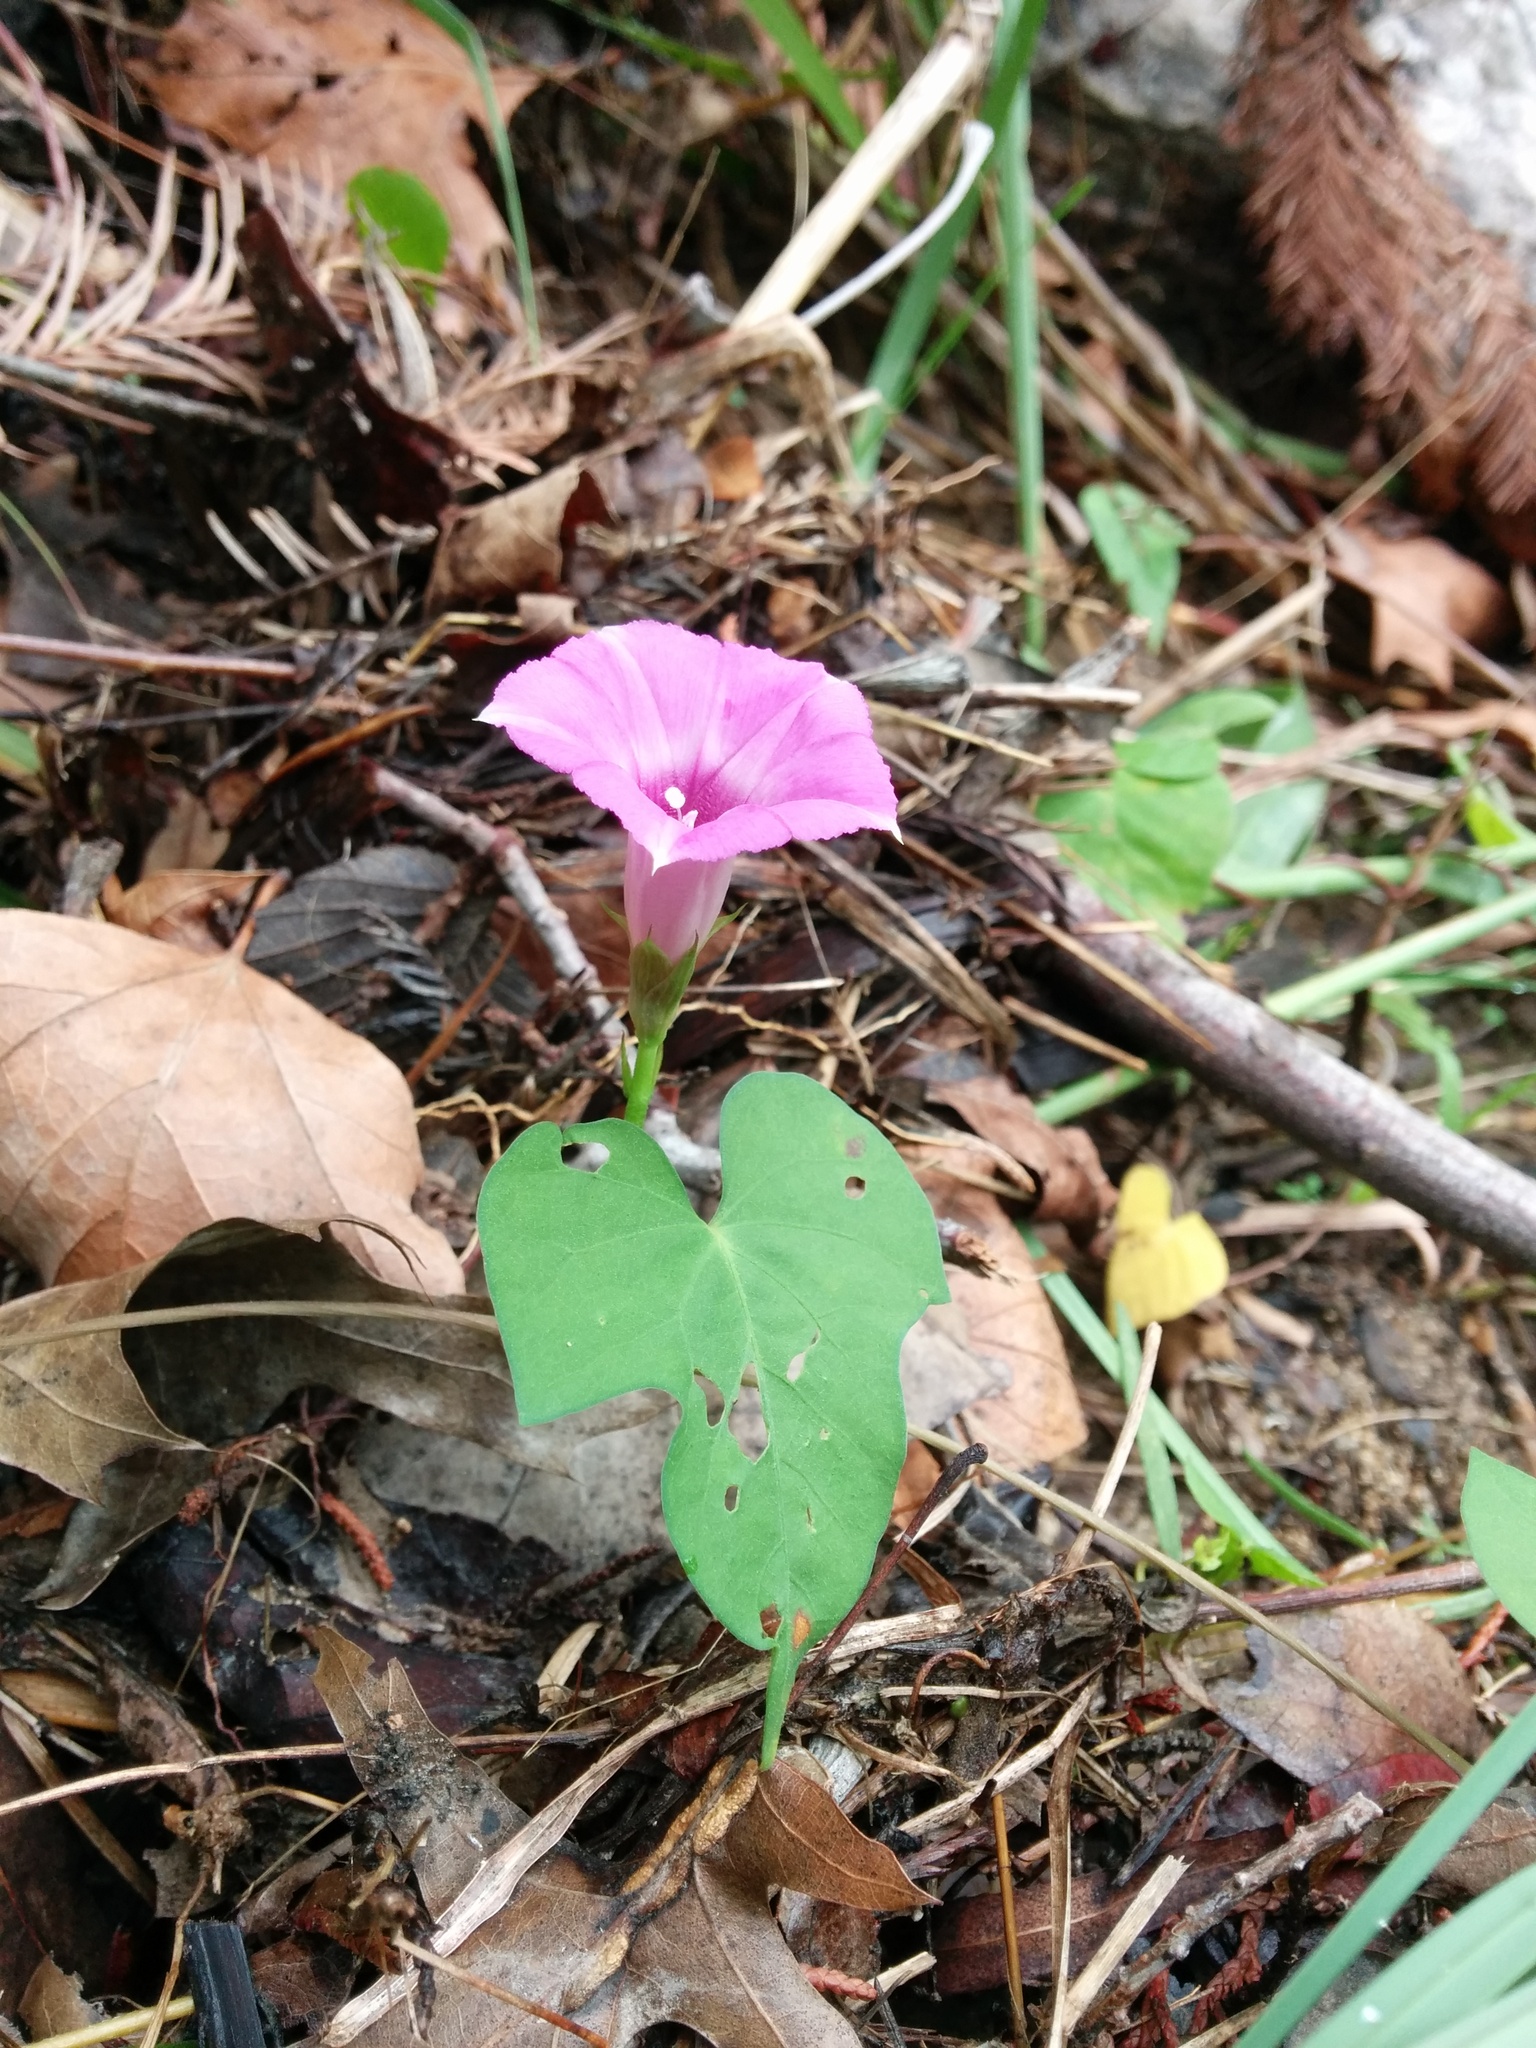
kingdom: Plantae
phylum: Tracheophyta
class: Magnoliopsida
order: Solanales
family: Convolvulaceae
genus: Ipomoea
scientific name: Ipomoea cordatotriloba
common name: Cotton morning glory
